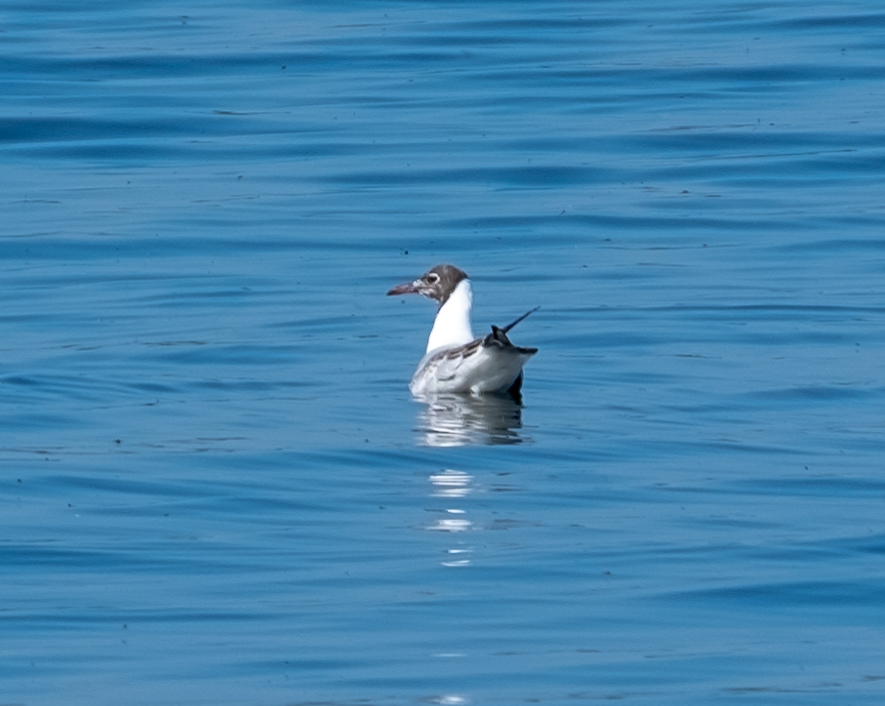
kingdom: Animalia
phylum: Chordata
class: Aves
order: Charadriiformes
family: Laridae
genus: Chroicocephalus
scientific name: Chroicocephalus ridibundus
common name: Black-headed gull
